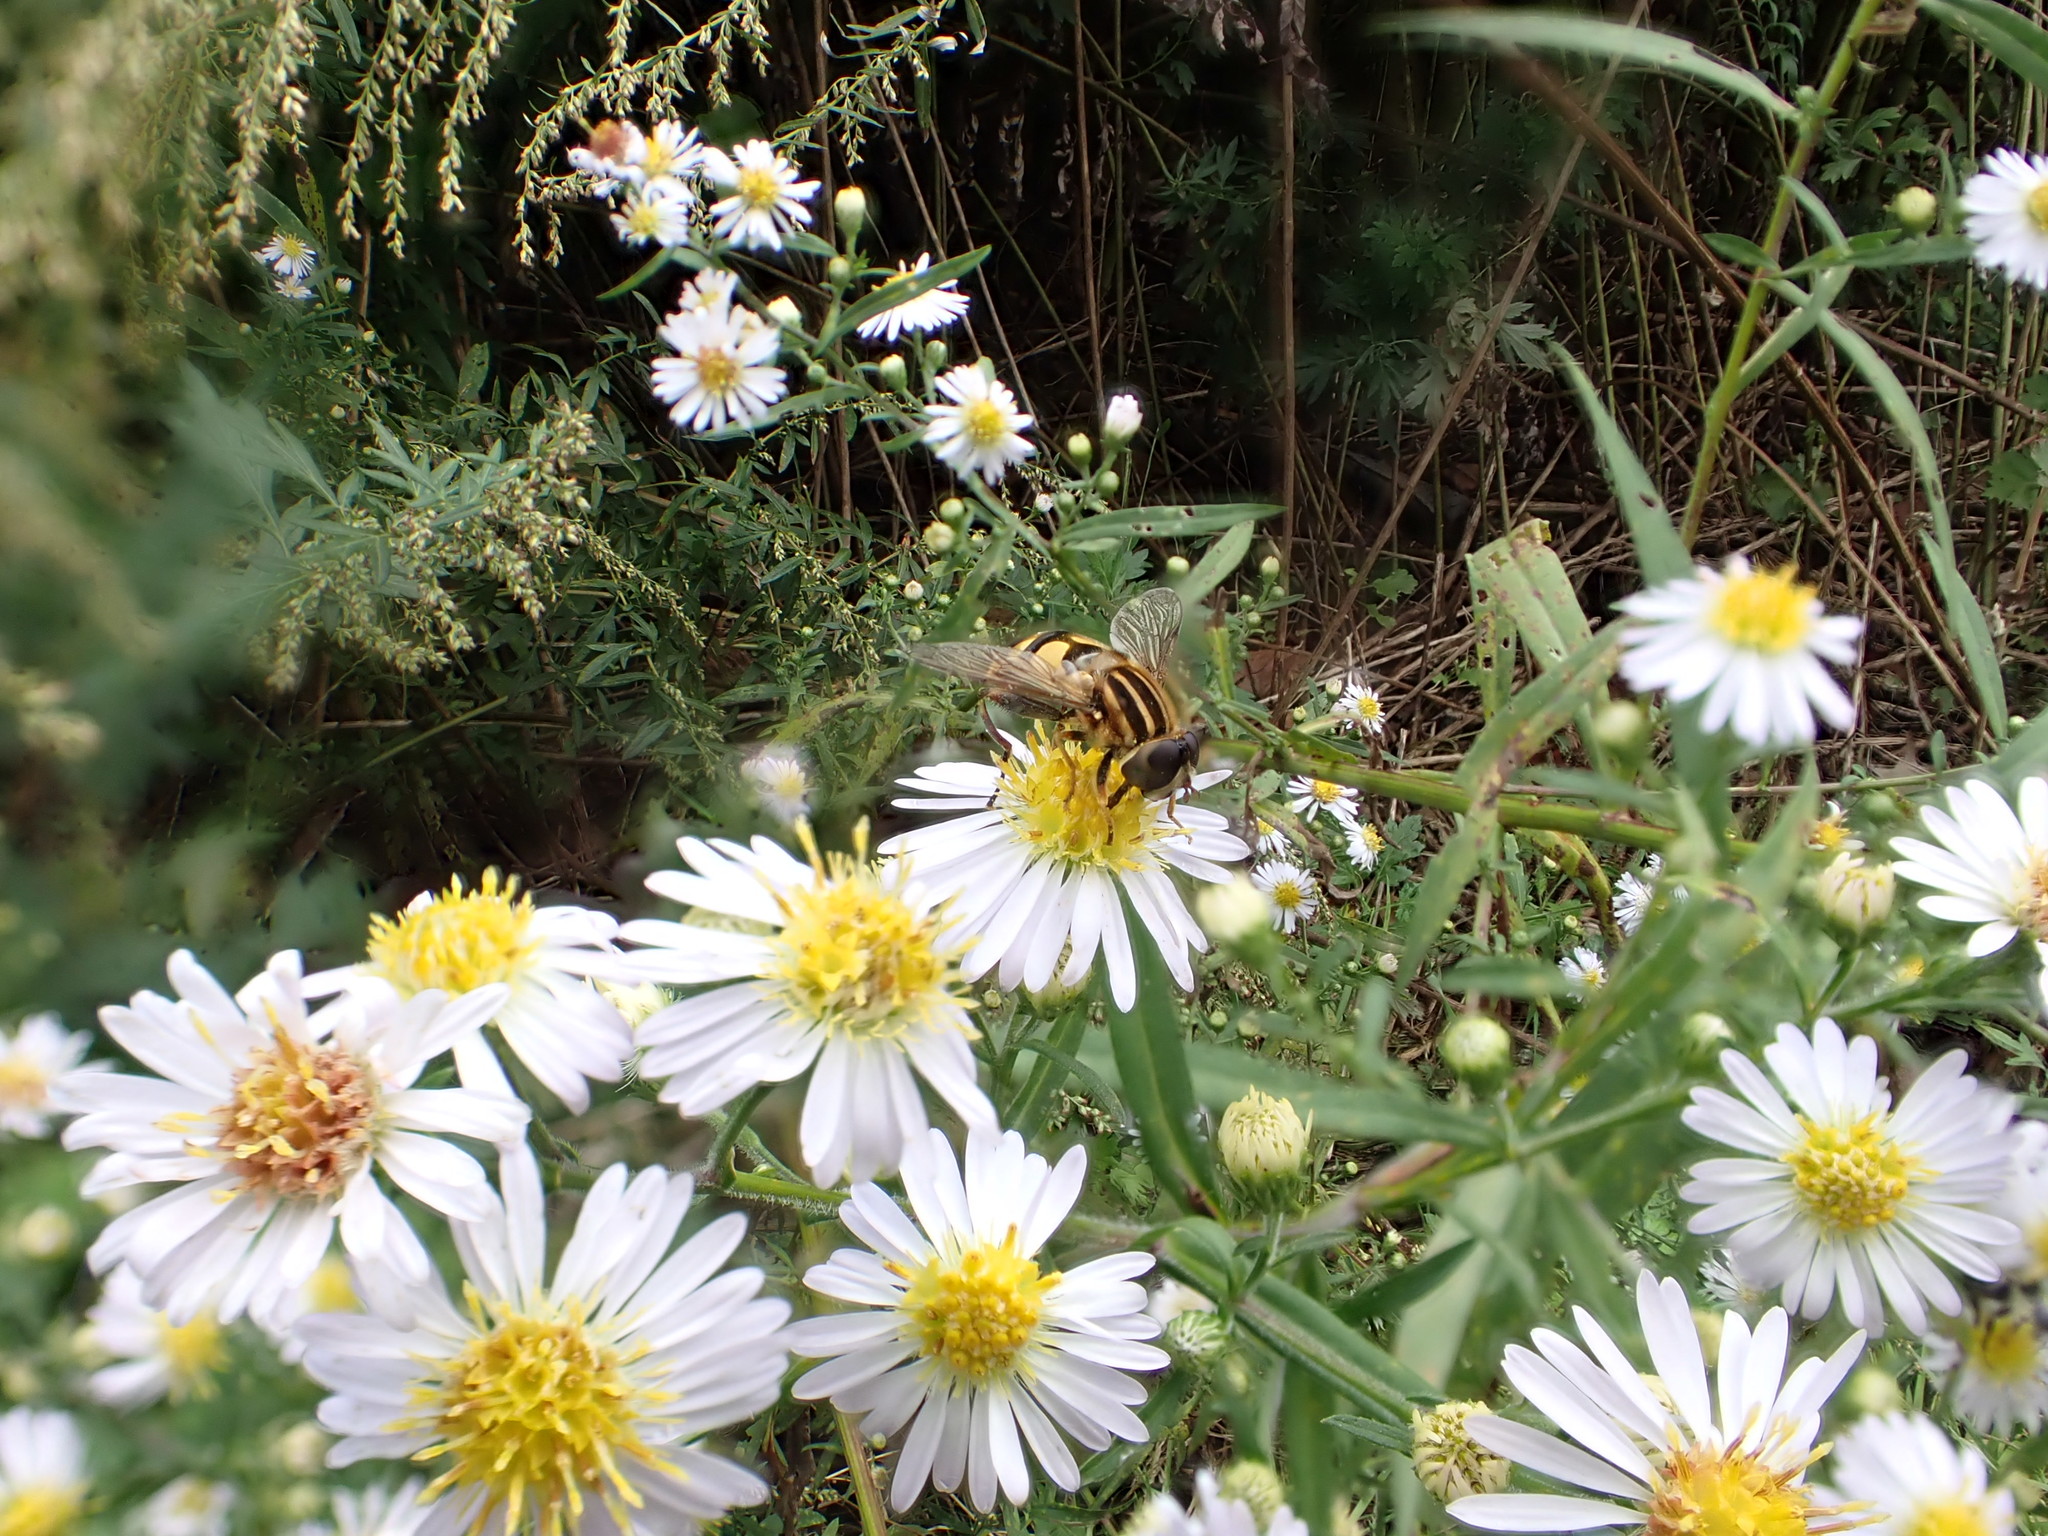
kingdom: Animalia
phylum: Arthropoda
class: Insecta
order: Diptera
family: Syrphidae
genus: Helophilus
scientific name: Helophilus fasciatus
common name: Narrow-headed marsh fly
